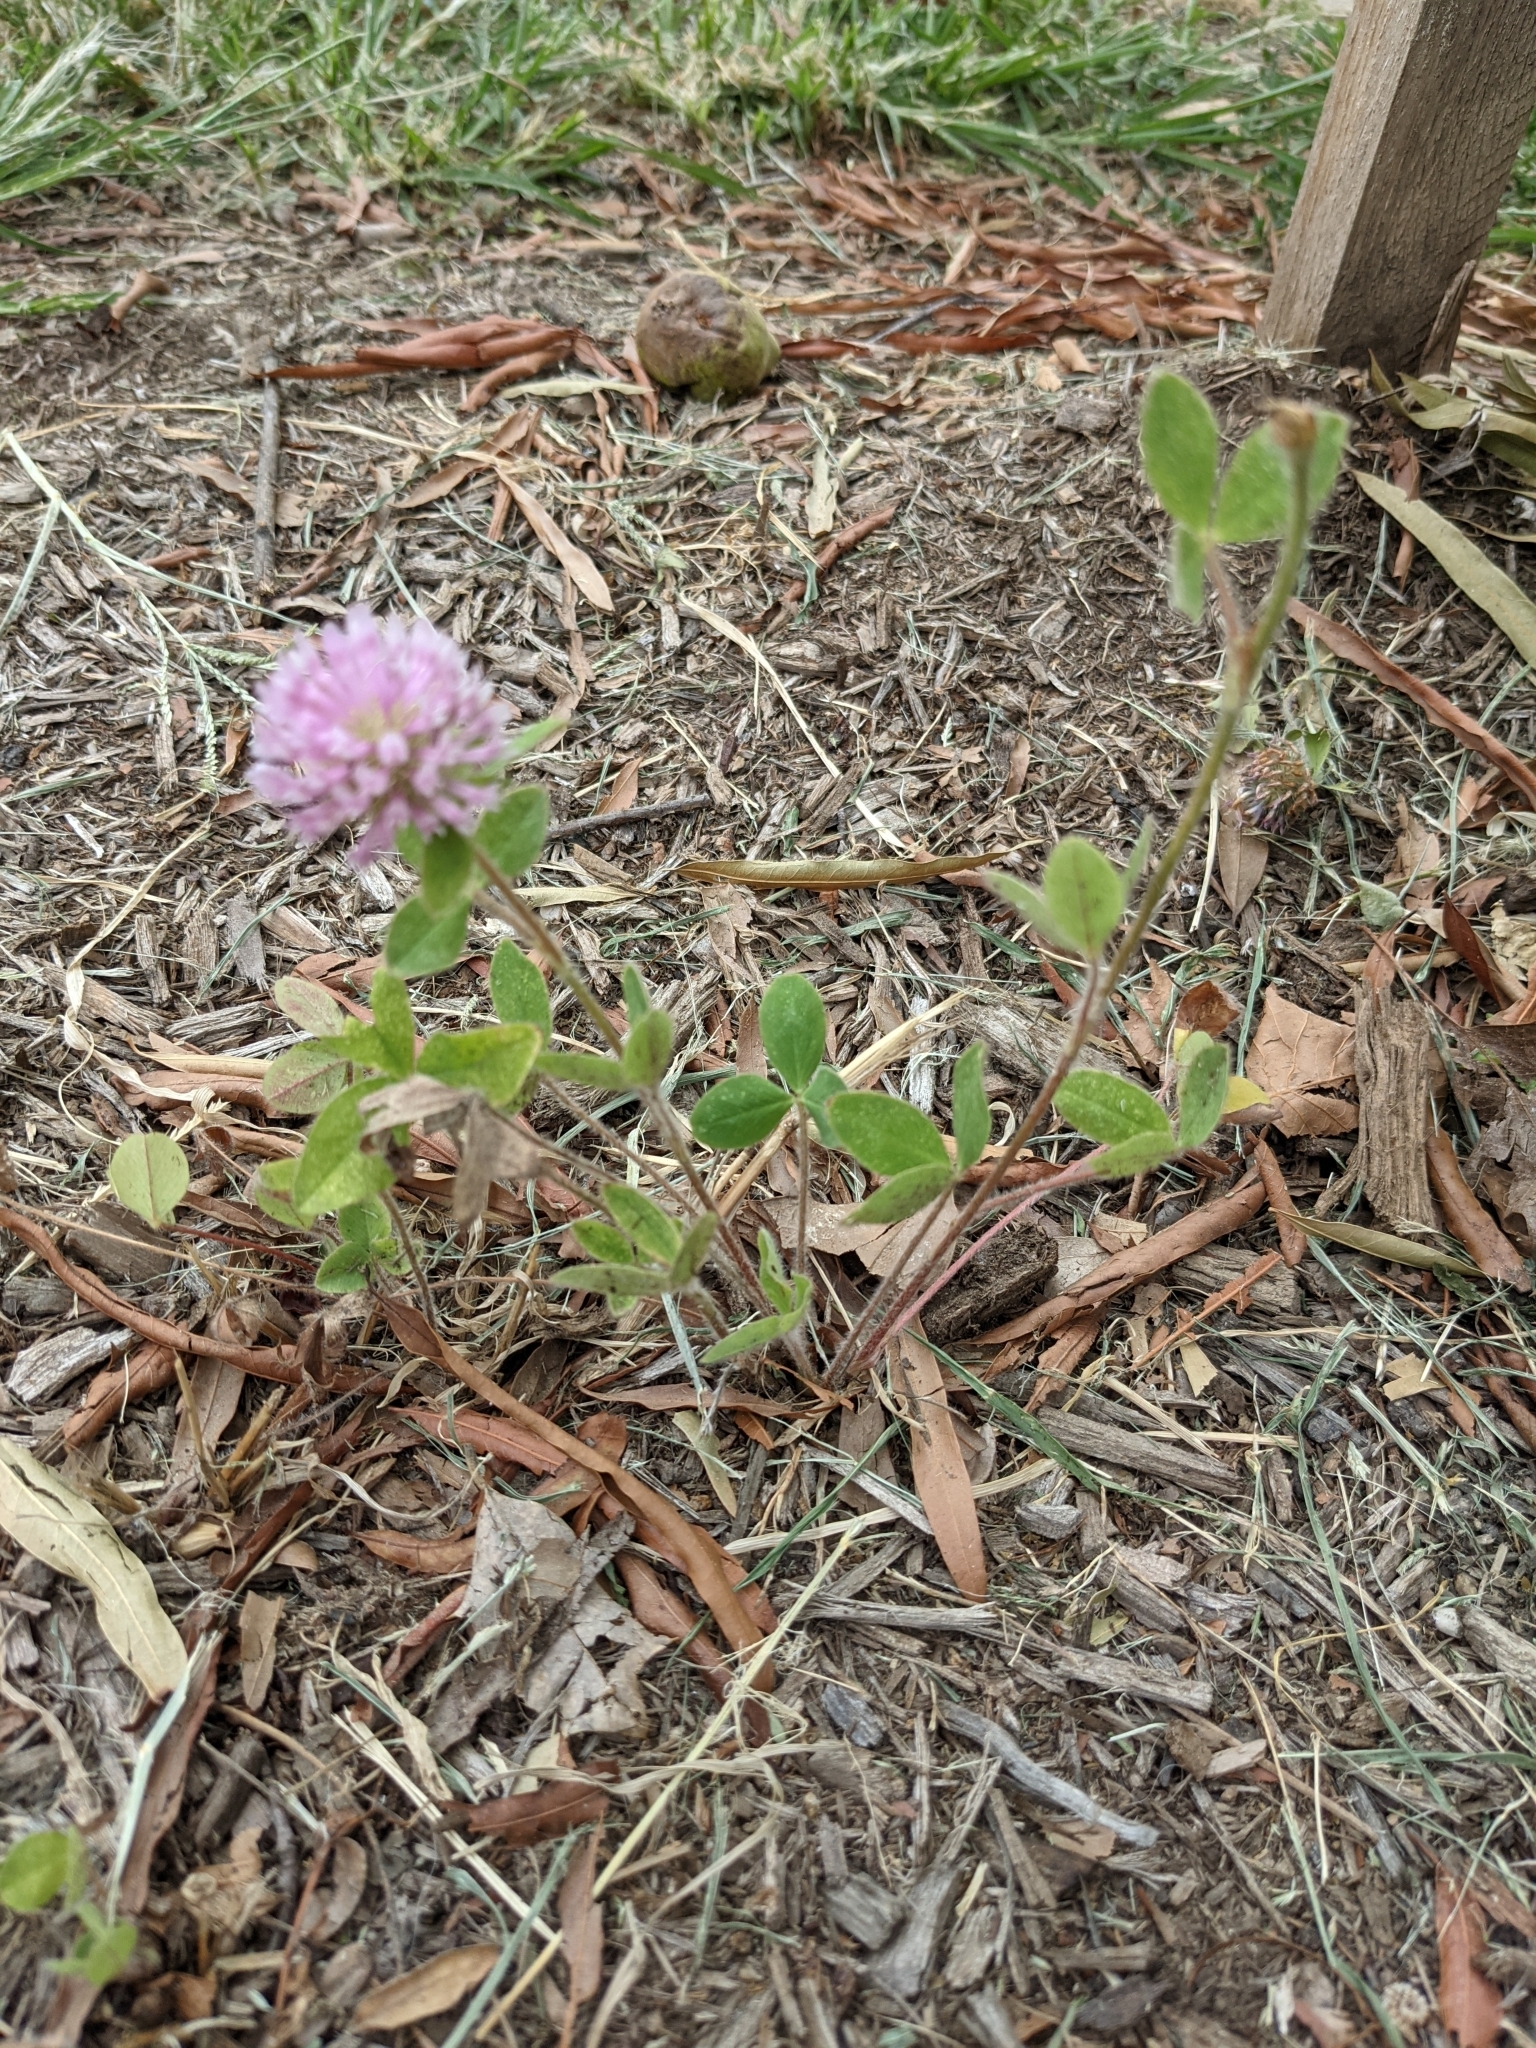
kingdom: Plantae
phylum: Tracheophyta
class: Magnoliopsida
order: Fabales
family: Fabaceae
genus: Trifolium
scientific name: Trifolium pratense
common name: Red clover
